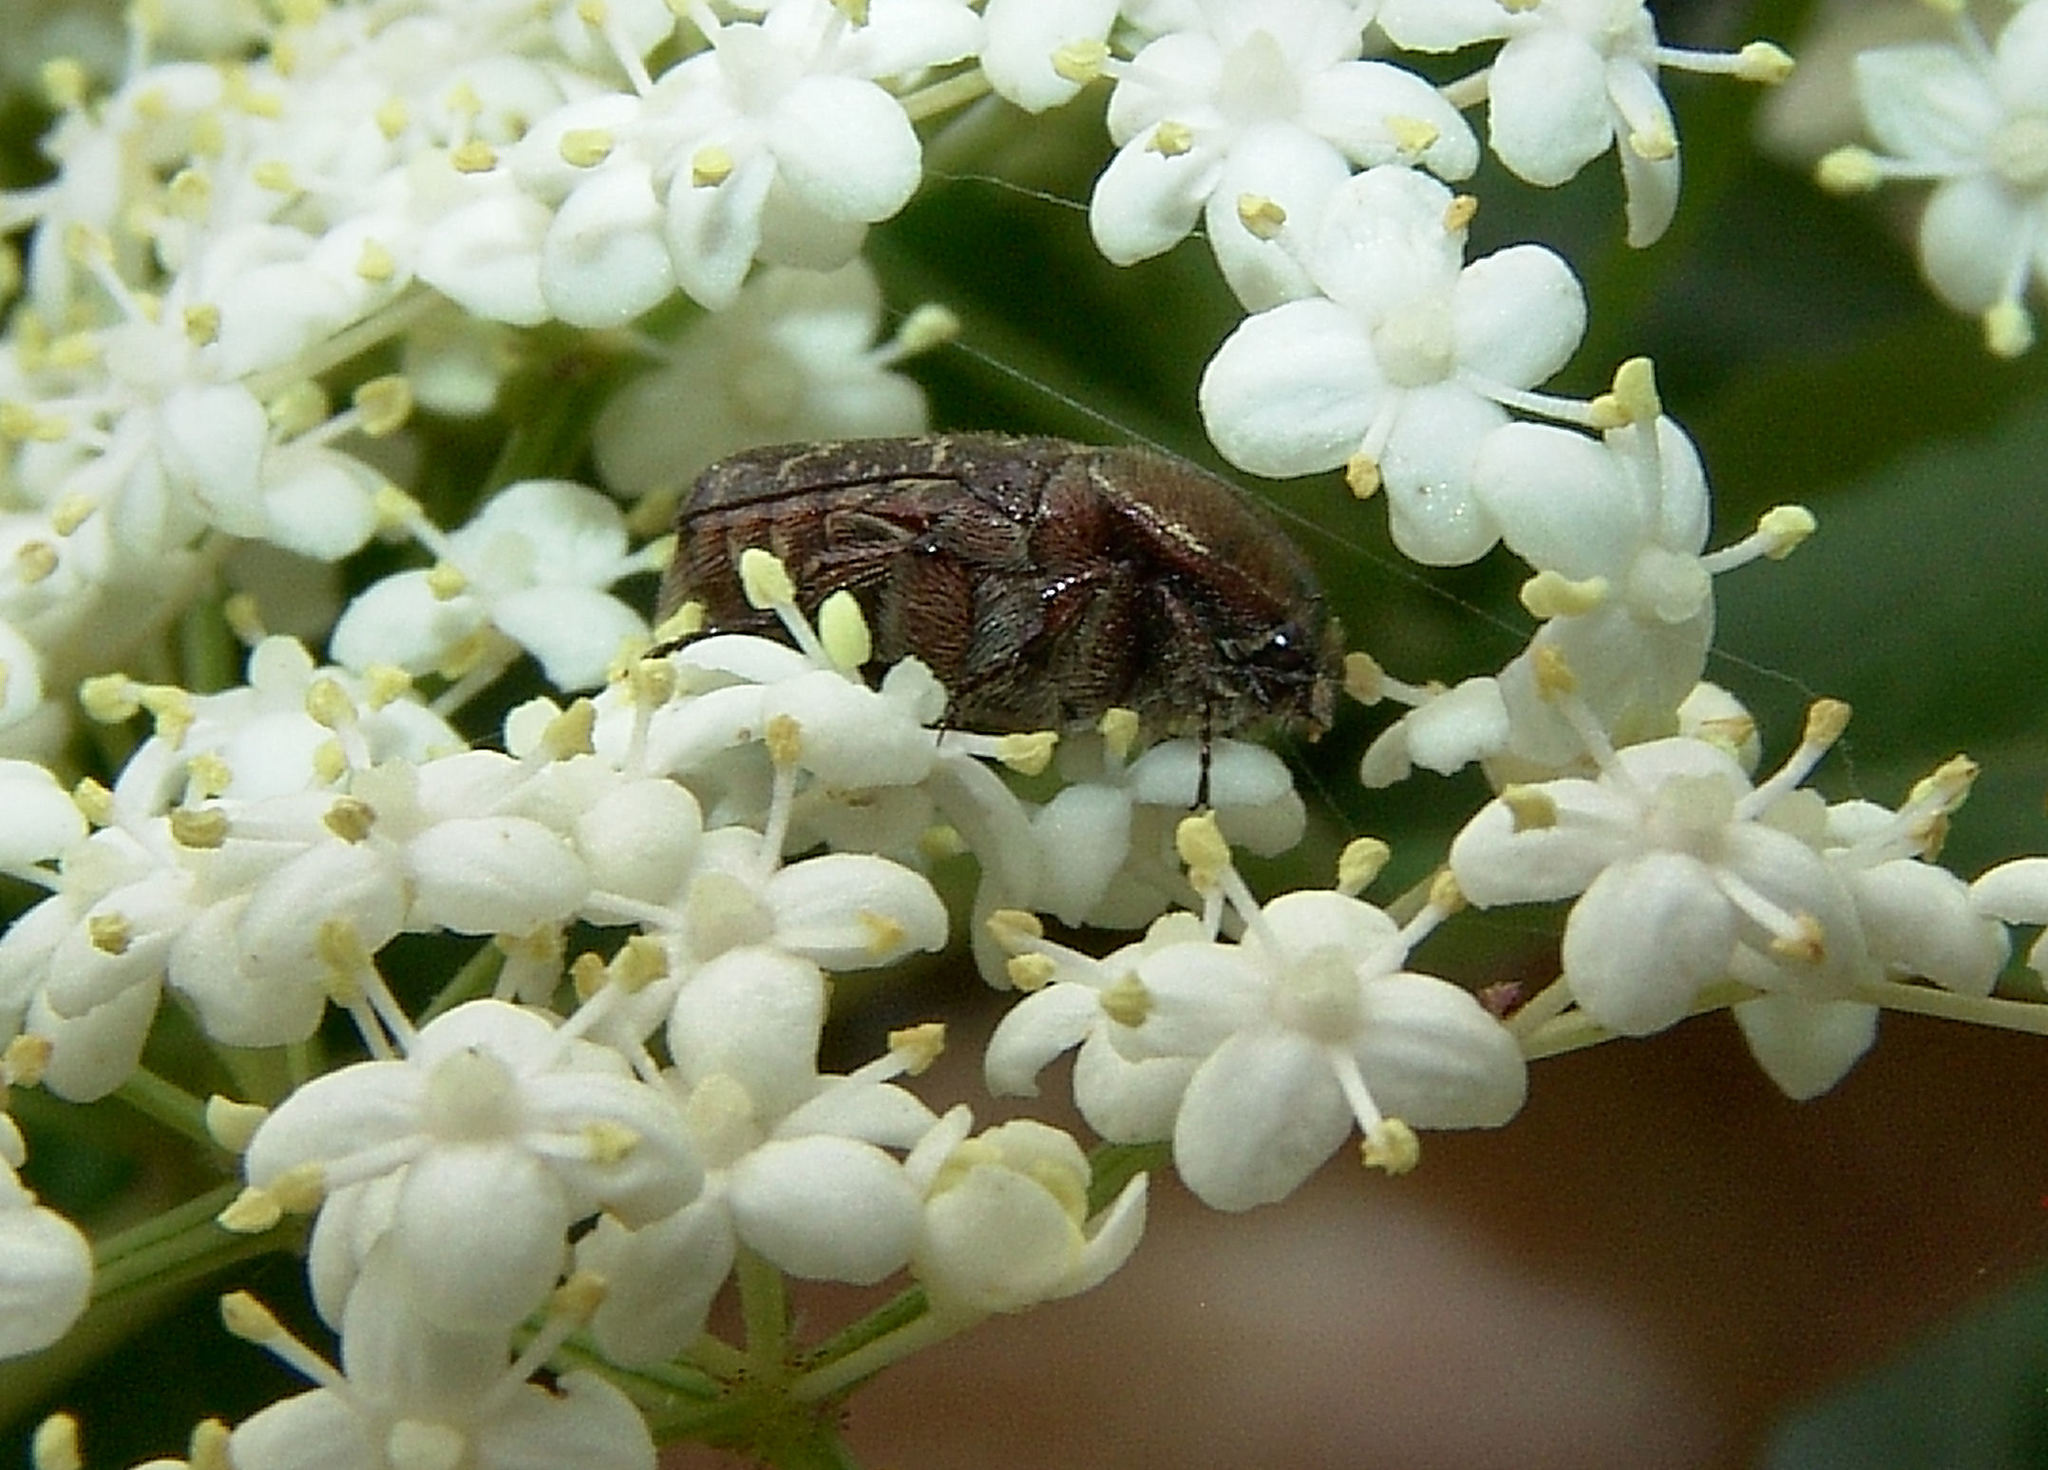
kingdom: Animalia
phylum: Arthropoda
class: Insecta
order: Coleoptera
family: Scarabaeidae
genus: Euphoria
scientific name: Euphoria sepulcralis
